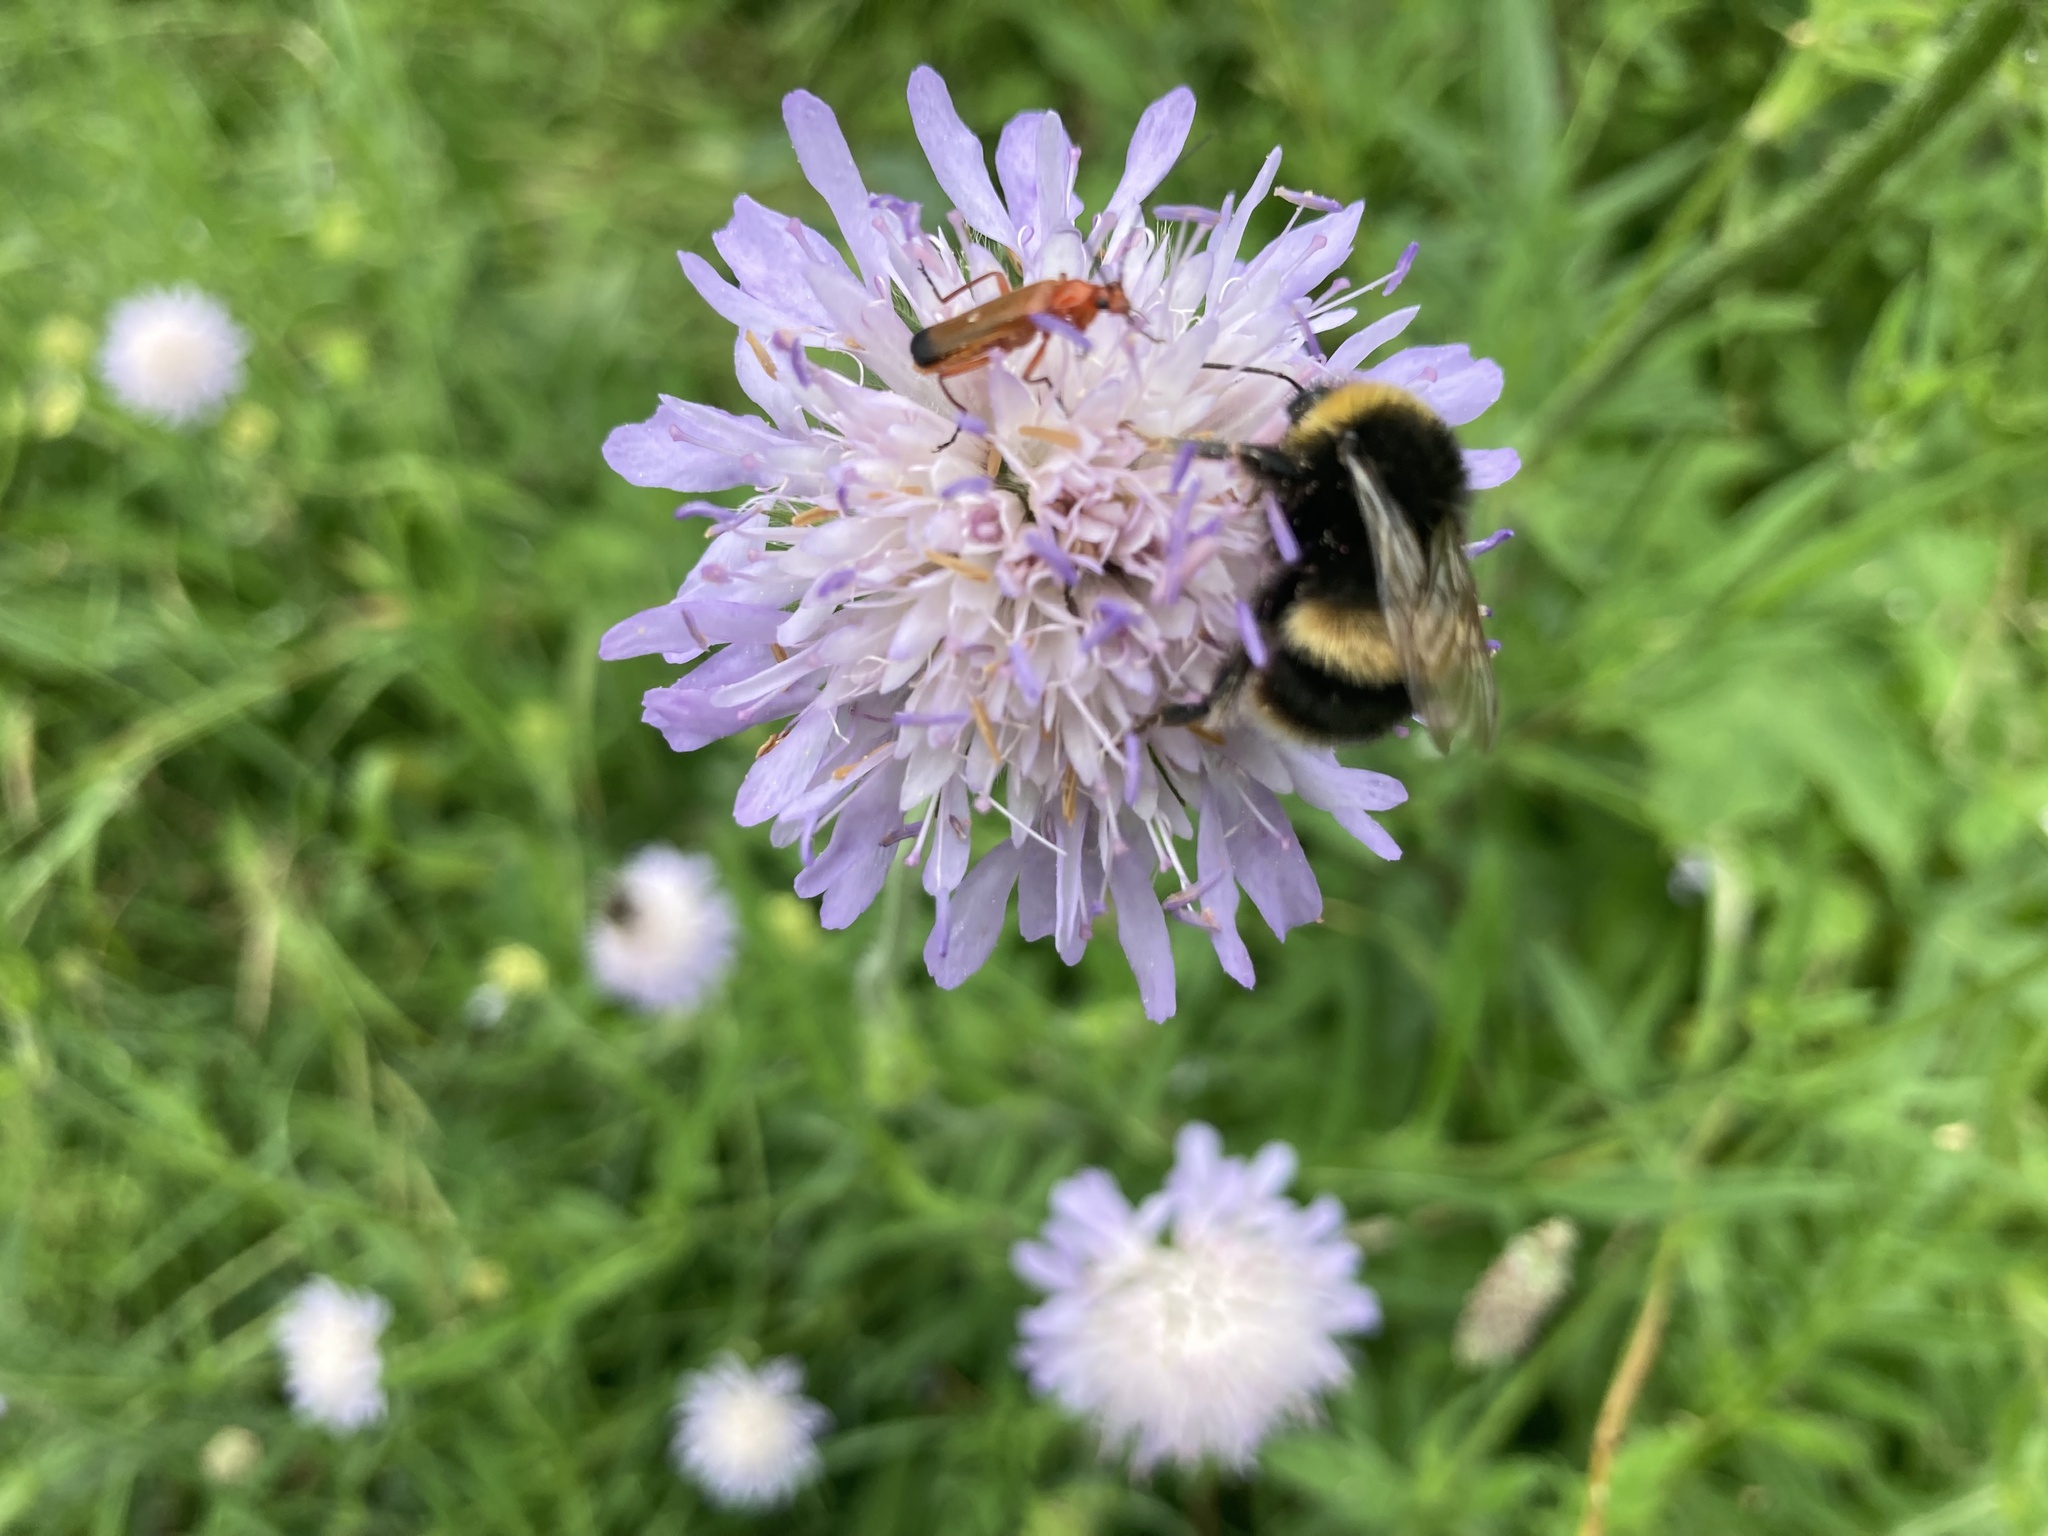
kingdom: Animalia
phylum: Arthropoda
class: Insecta
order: Hymenoptera
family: Apidae
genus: Bombus
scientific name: Bombus terrestris
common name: Buff-tailed bumblebee
